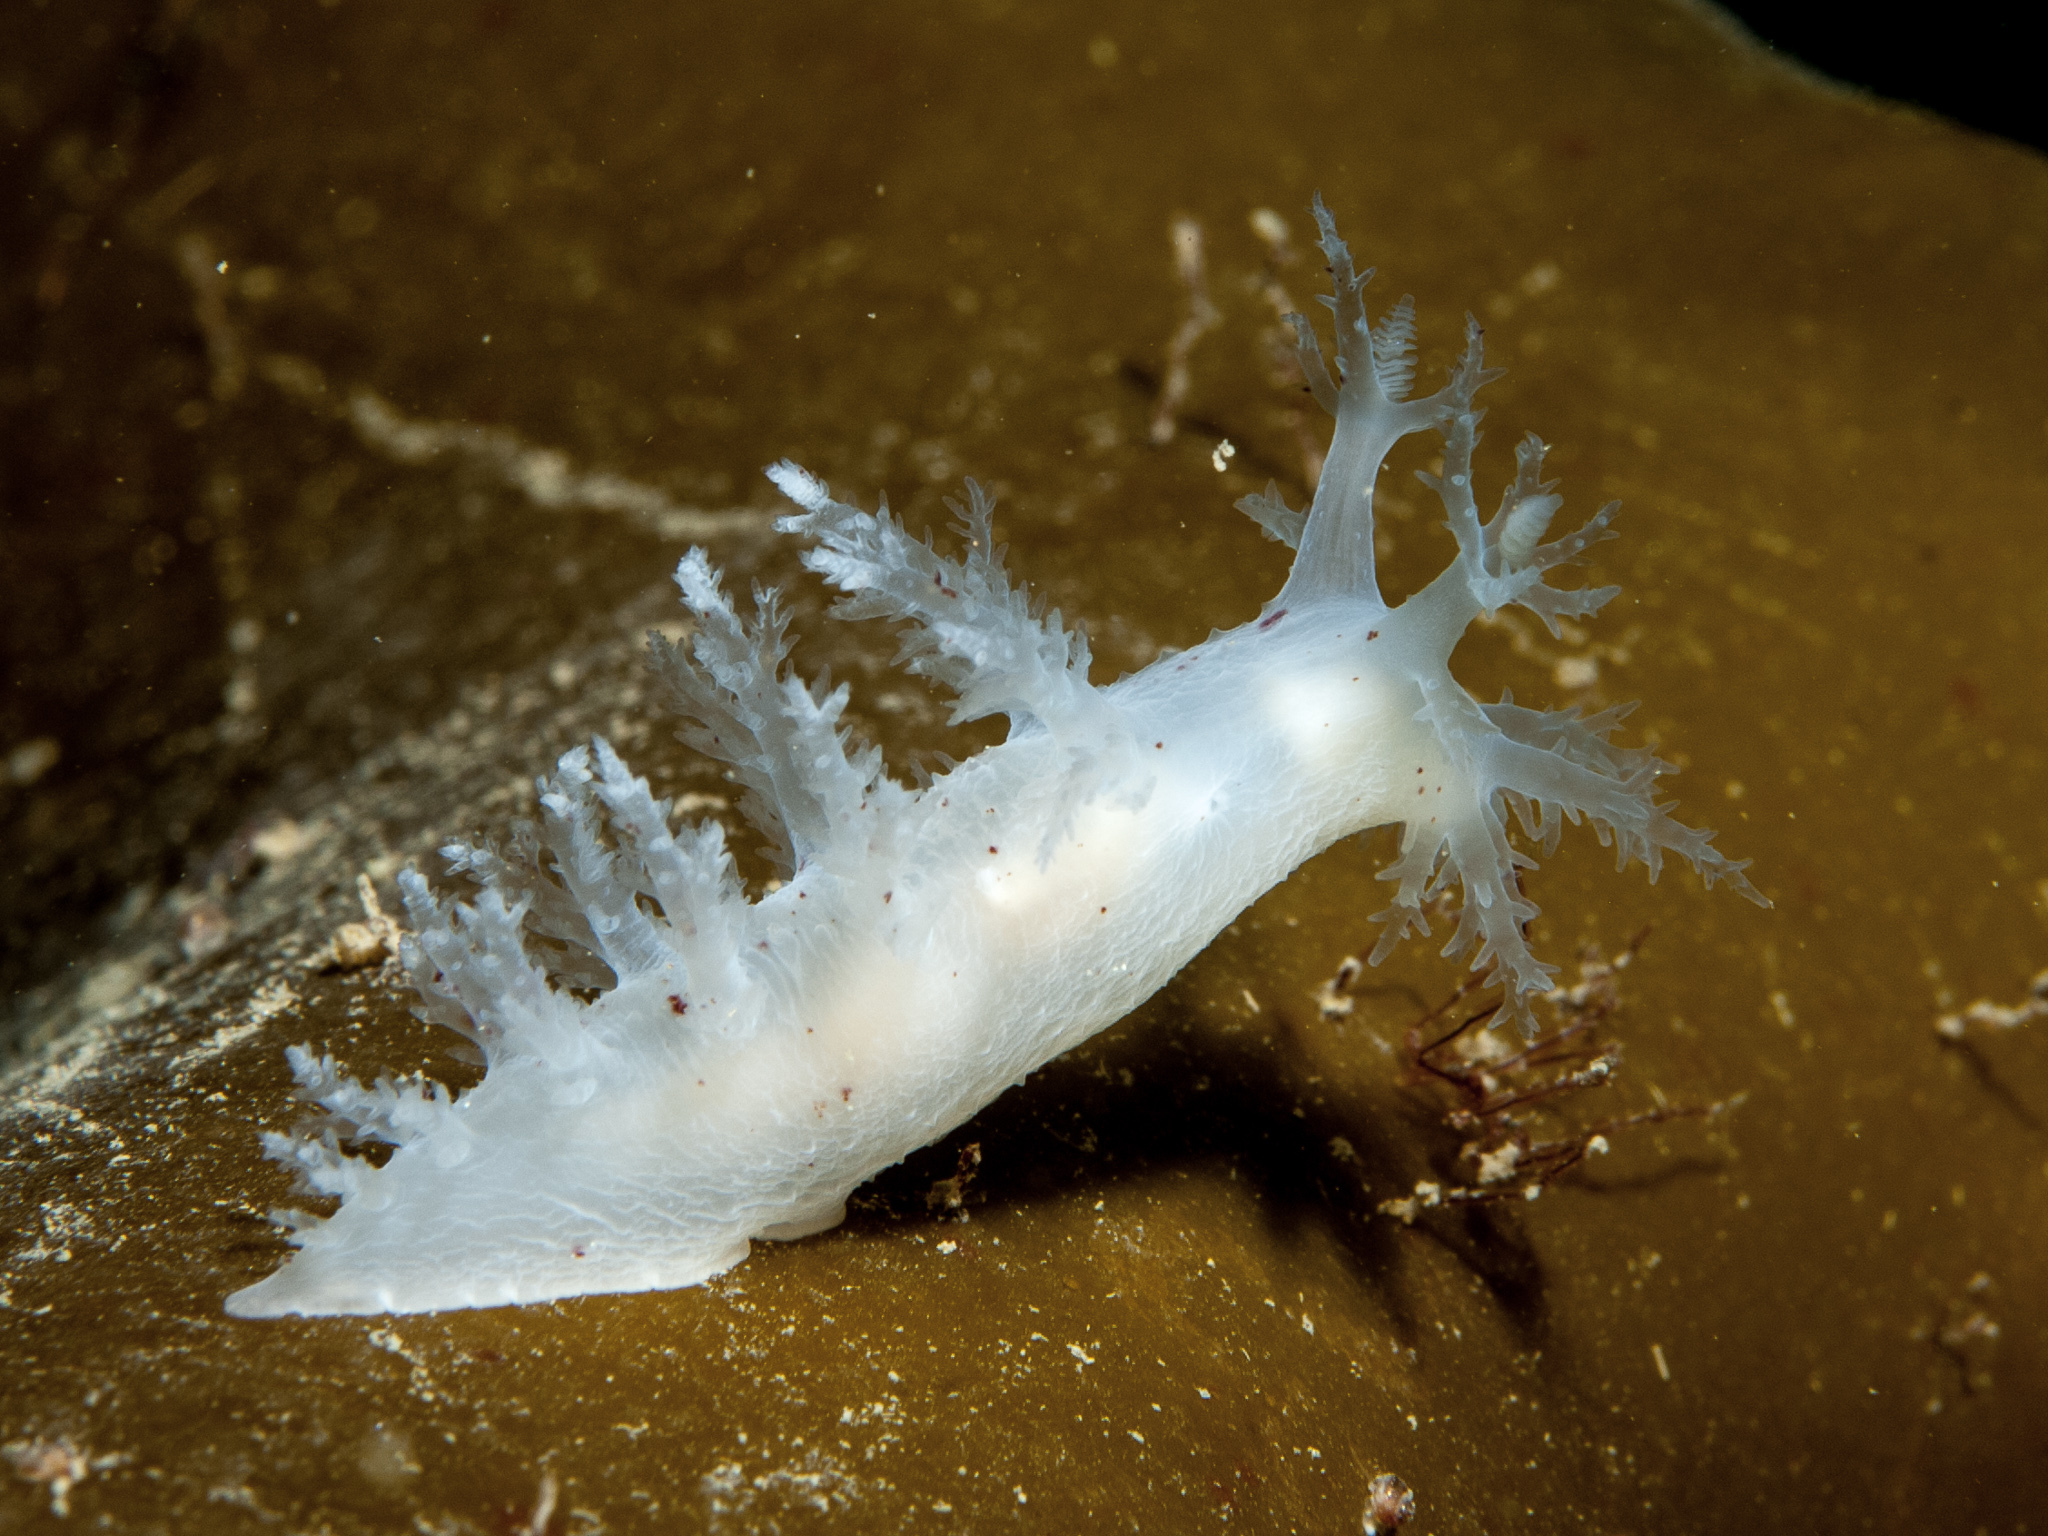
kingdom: Animalia
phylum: Mollusca
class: Gastropoda
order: Nudibranchia
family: Dendronotidae
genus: Dendronotus
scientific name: Dendronotus lacteus
